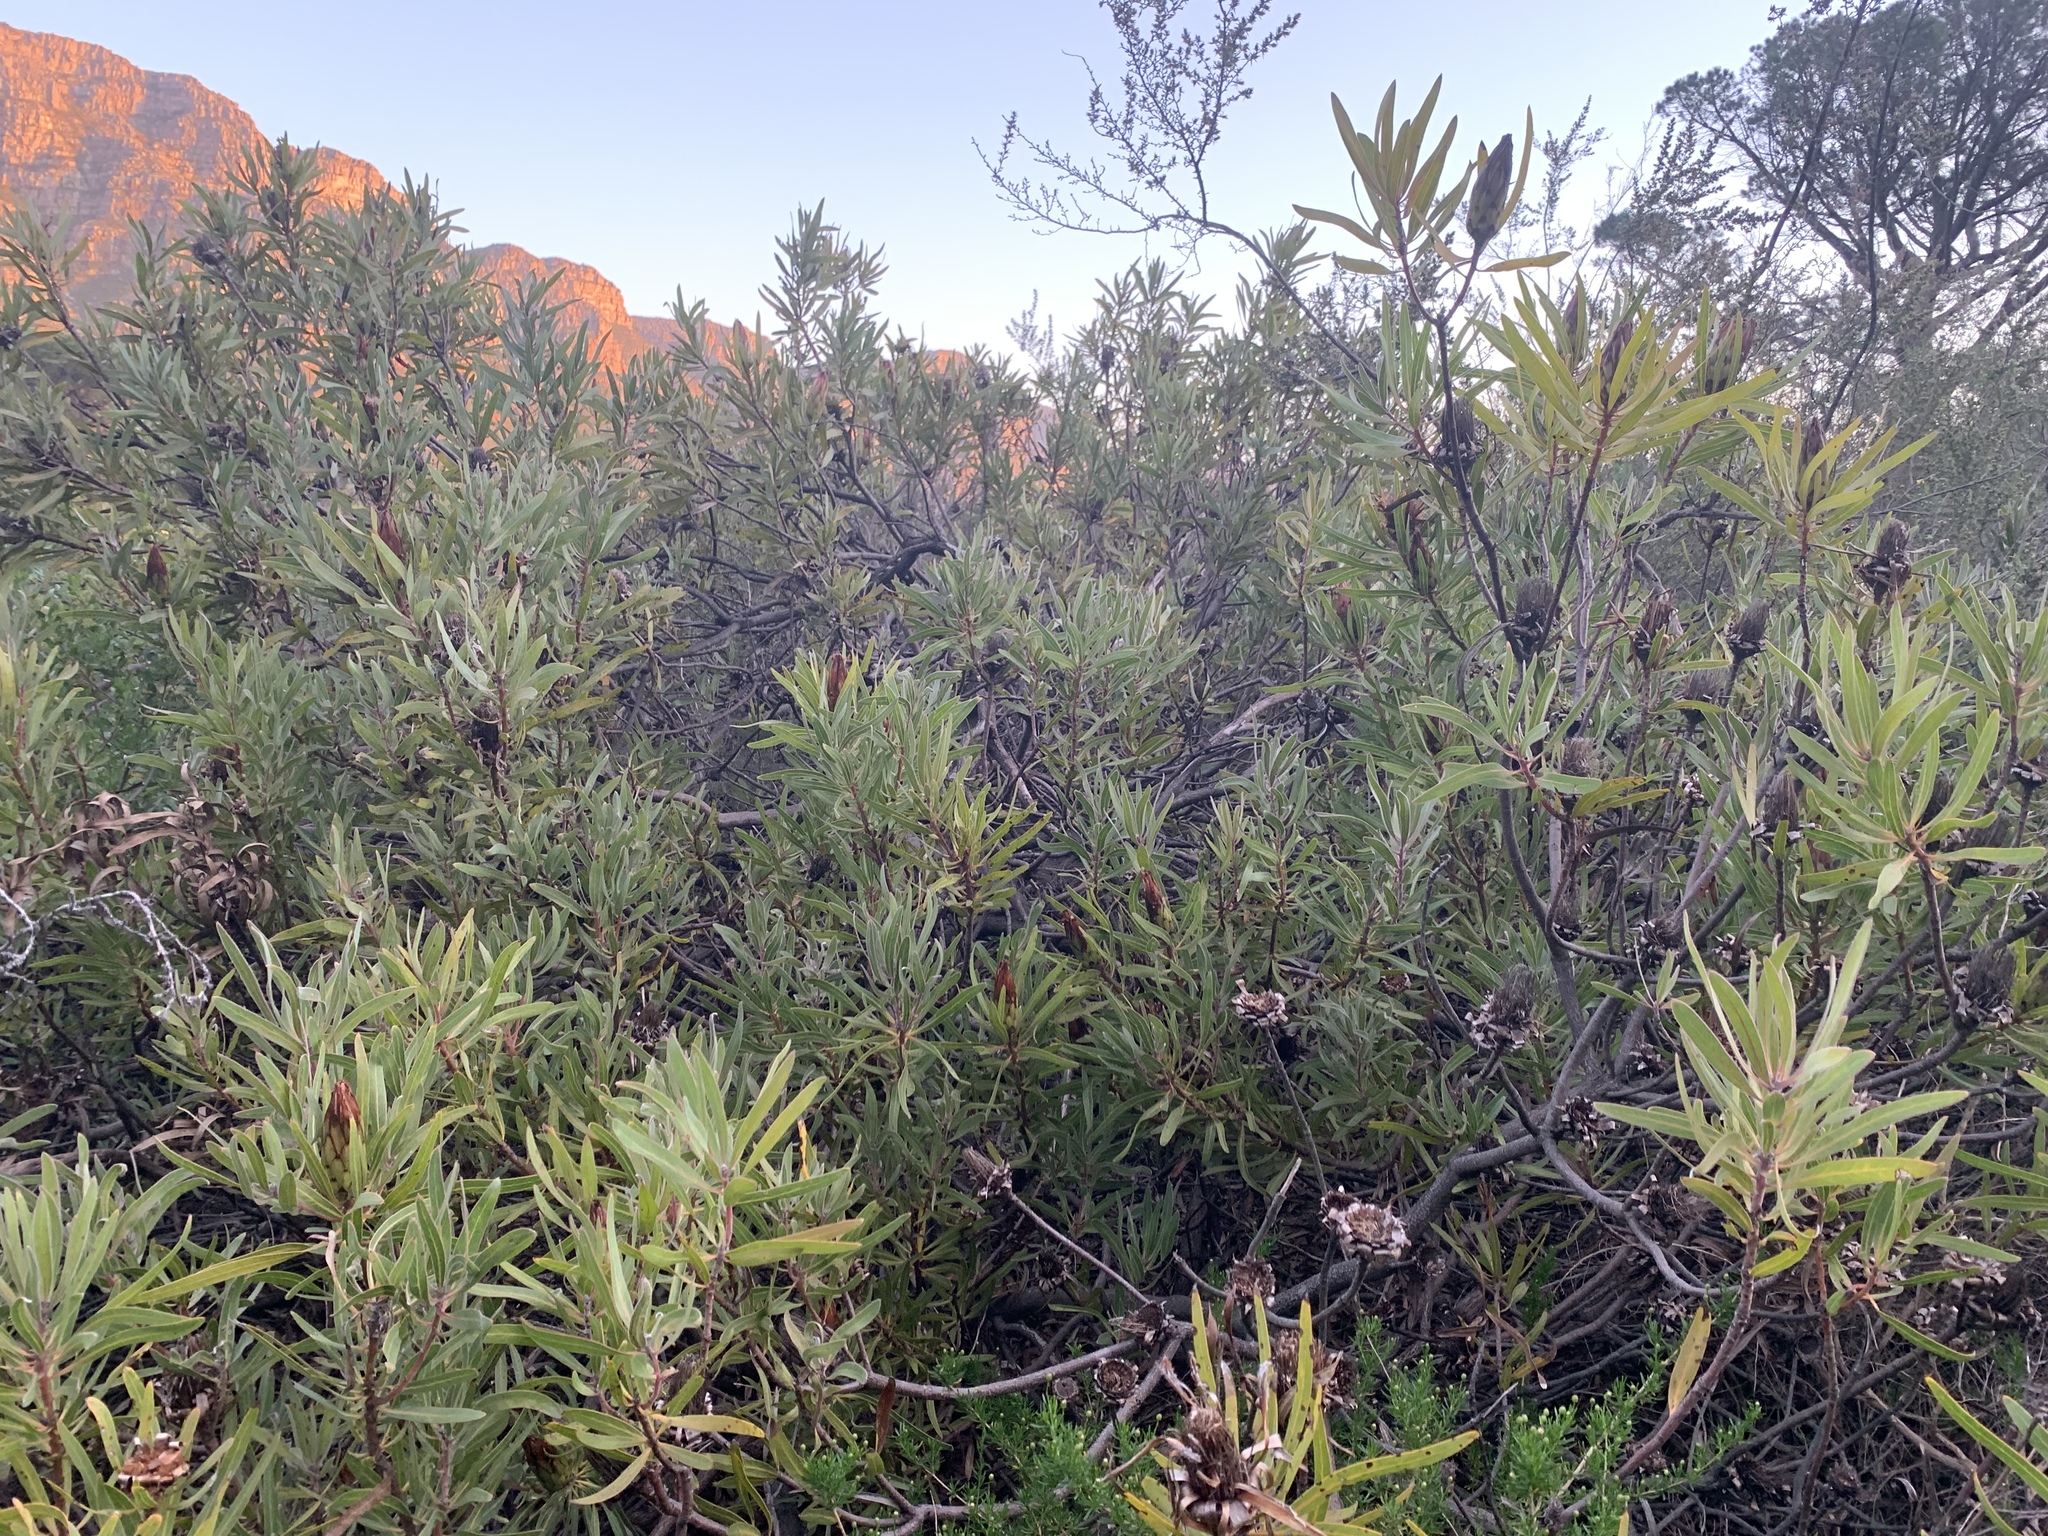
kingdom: Plantae
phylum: Tracheophyta
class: Magnoliopsida
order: Proteales
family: Proteaceae
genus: Protea
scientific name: Protea burchellii
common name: Burchell's sugarbush
